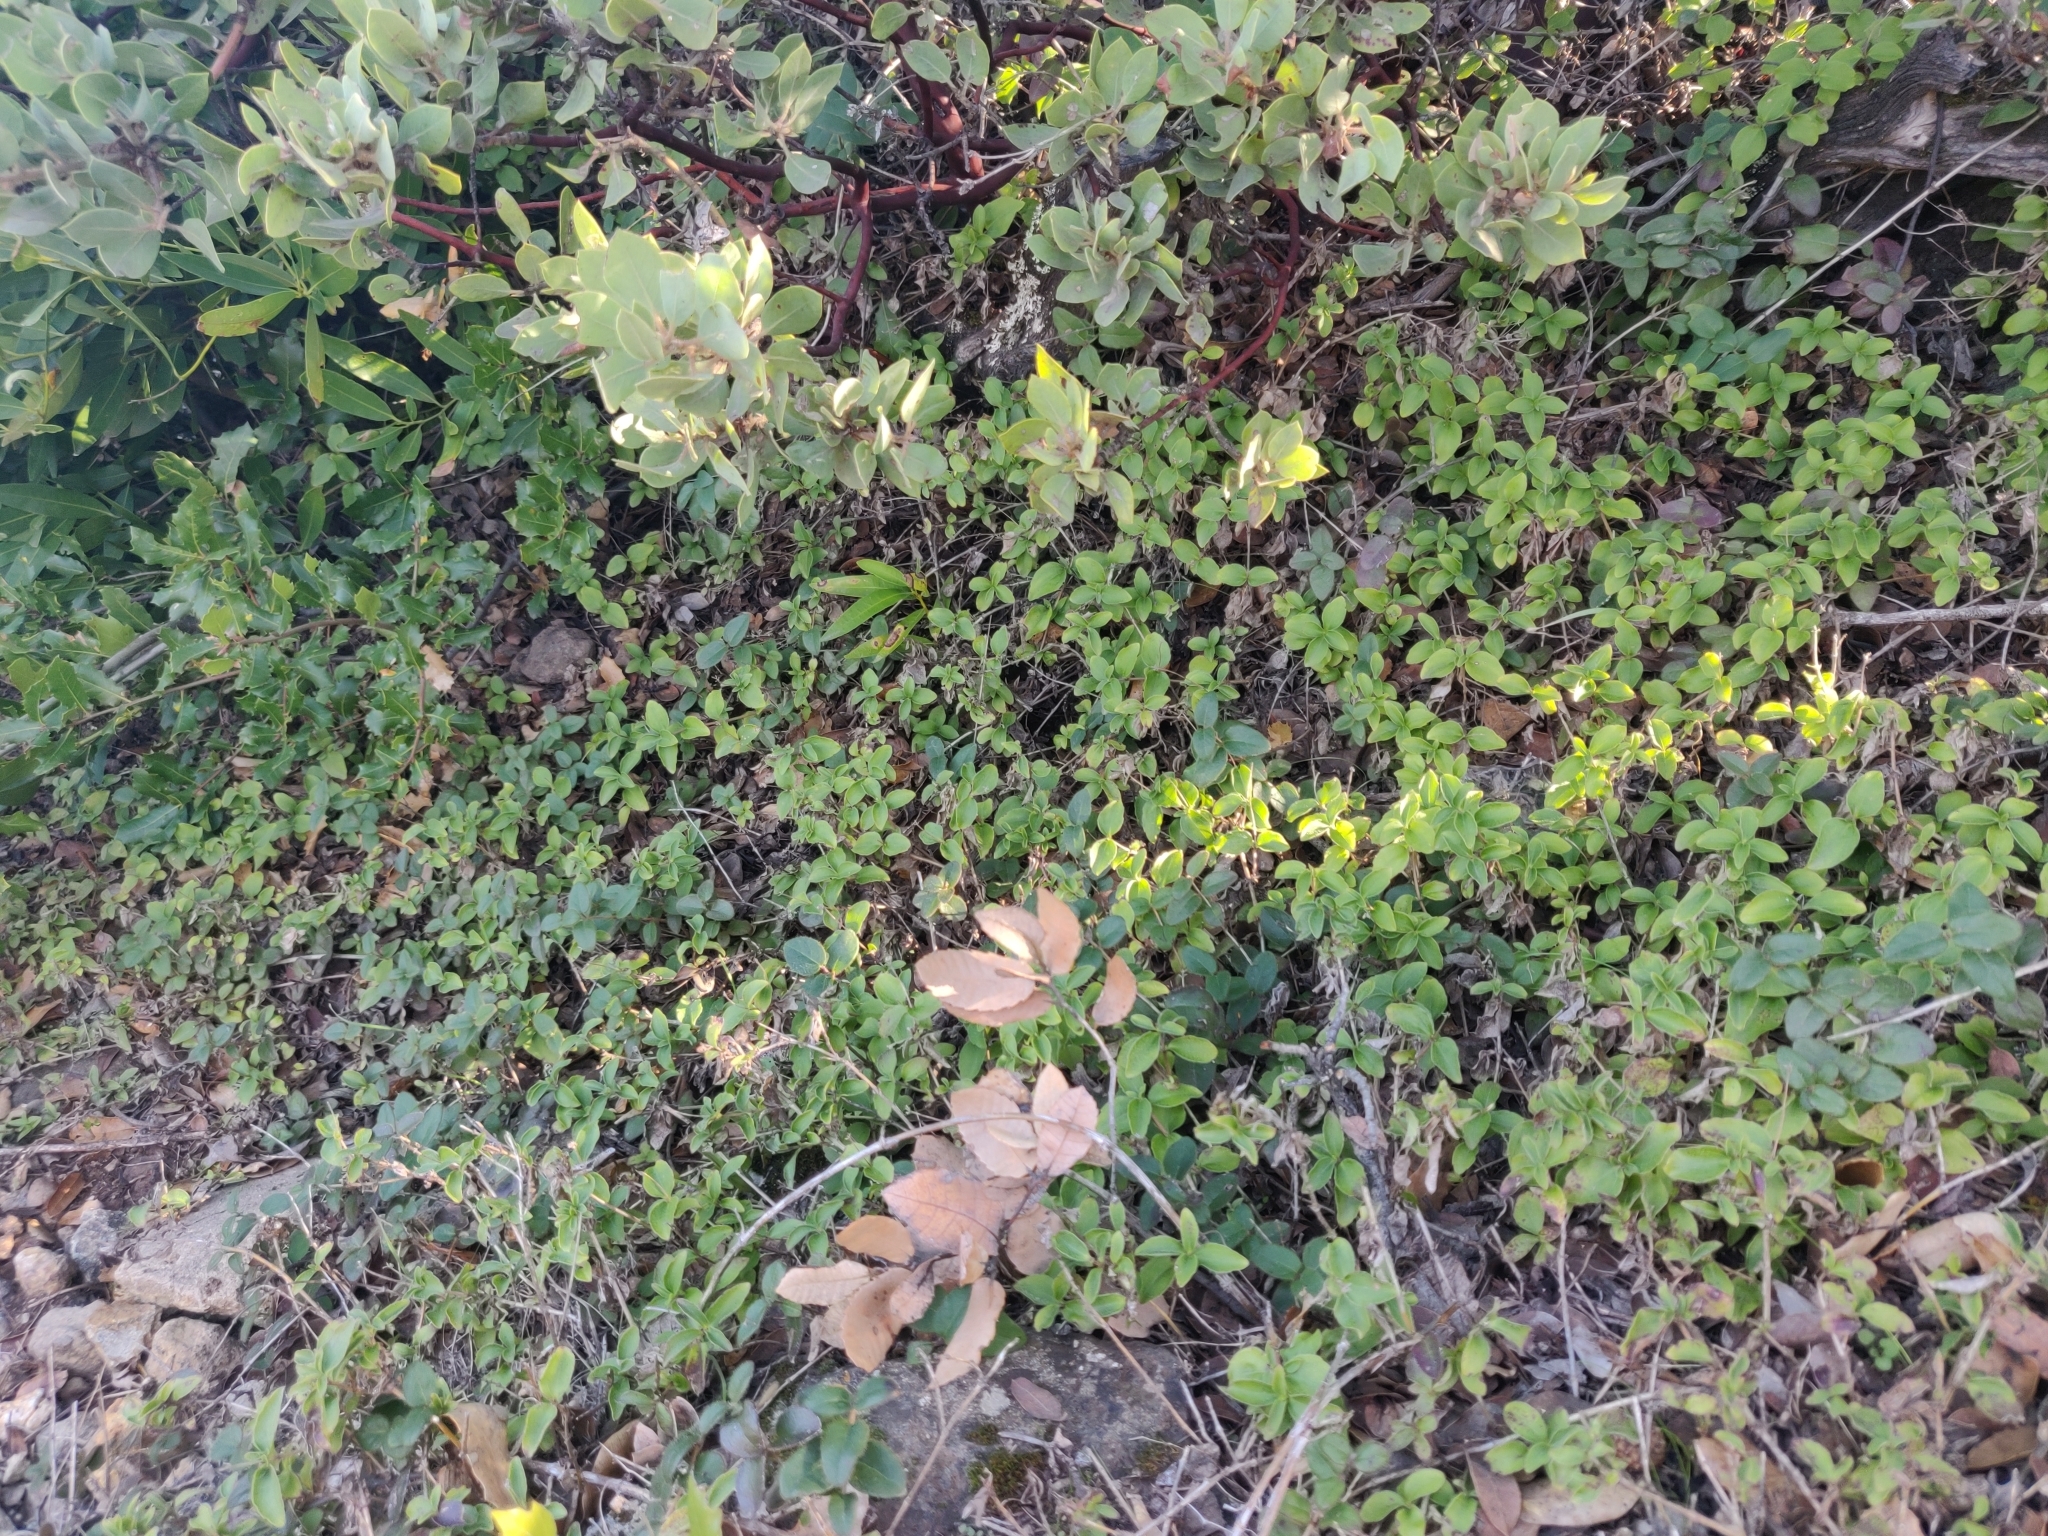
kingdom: Plantae
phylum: Tracheophyta
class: Magnoliopsida
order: Cornales
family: Hydrangeaceae
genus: Whipplea
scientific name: Whipplea modesta
